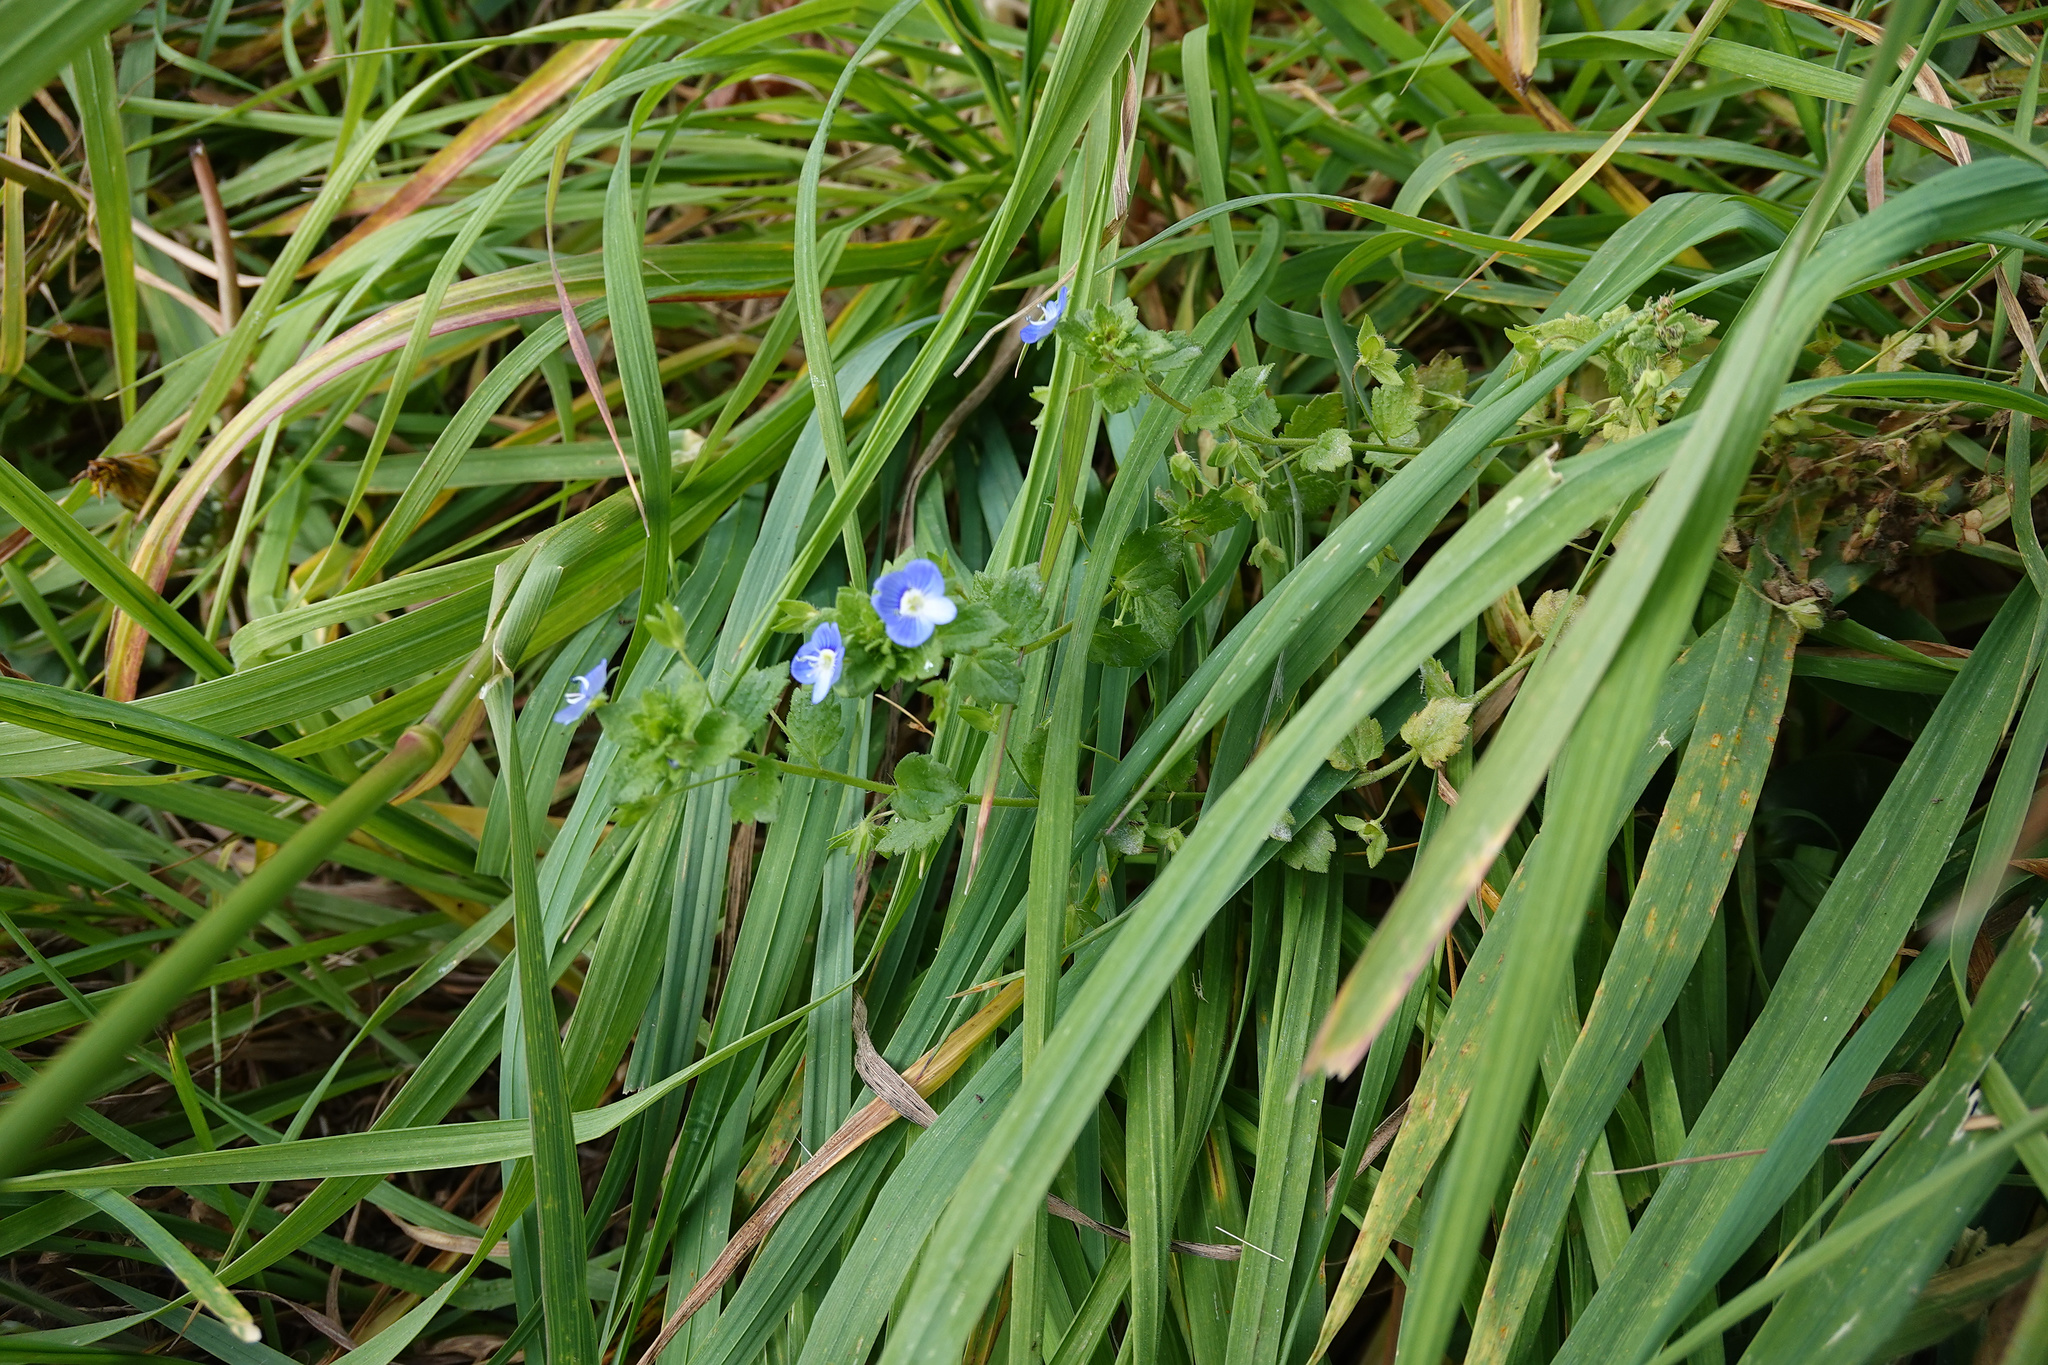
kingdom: Plantae
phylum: Tracheophyta
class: Magnoliopsida
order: Lamiales
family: Plantaginaceae
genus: Veronica
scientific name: Veronica persica
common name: Common field-speedwell
